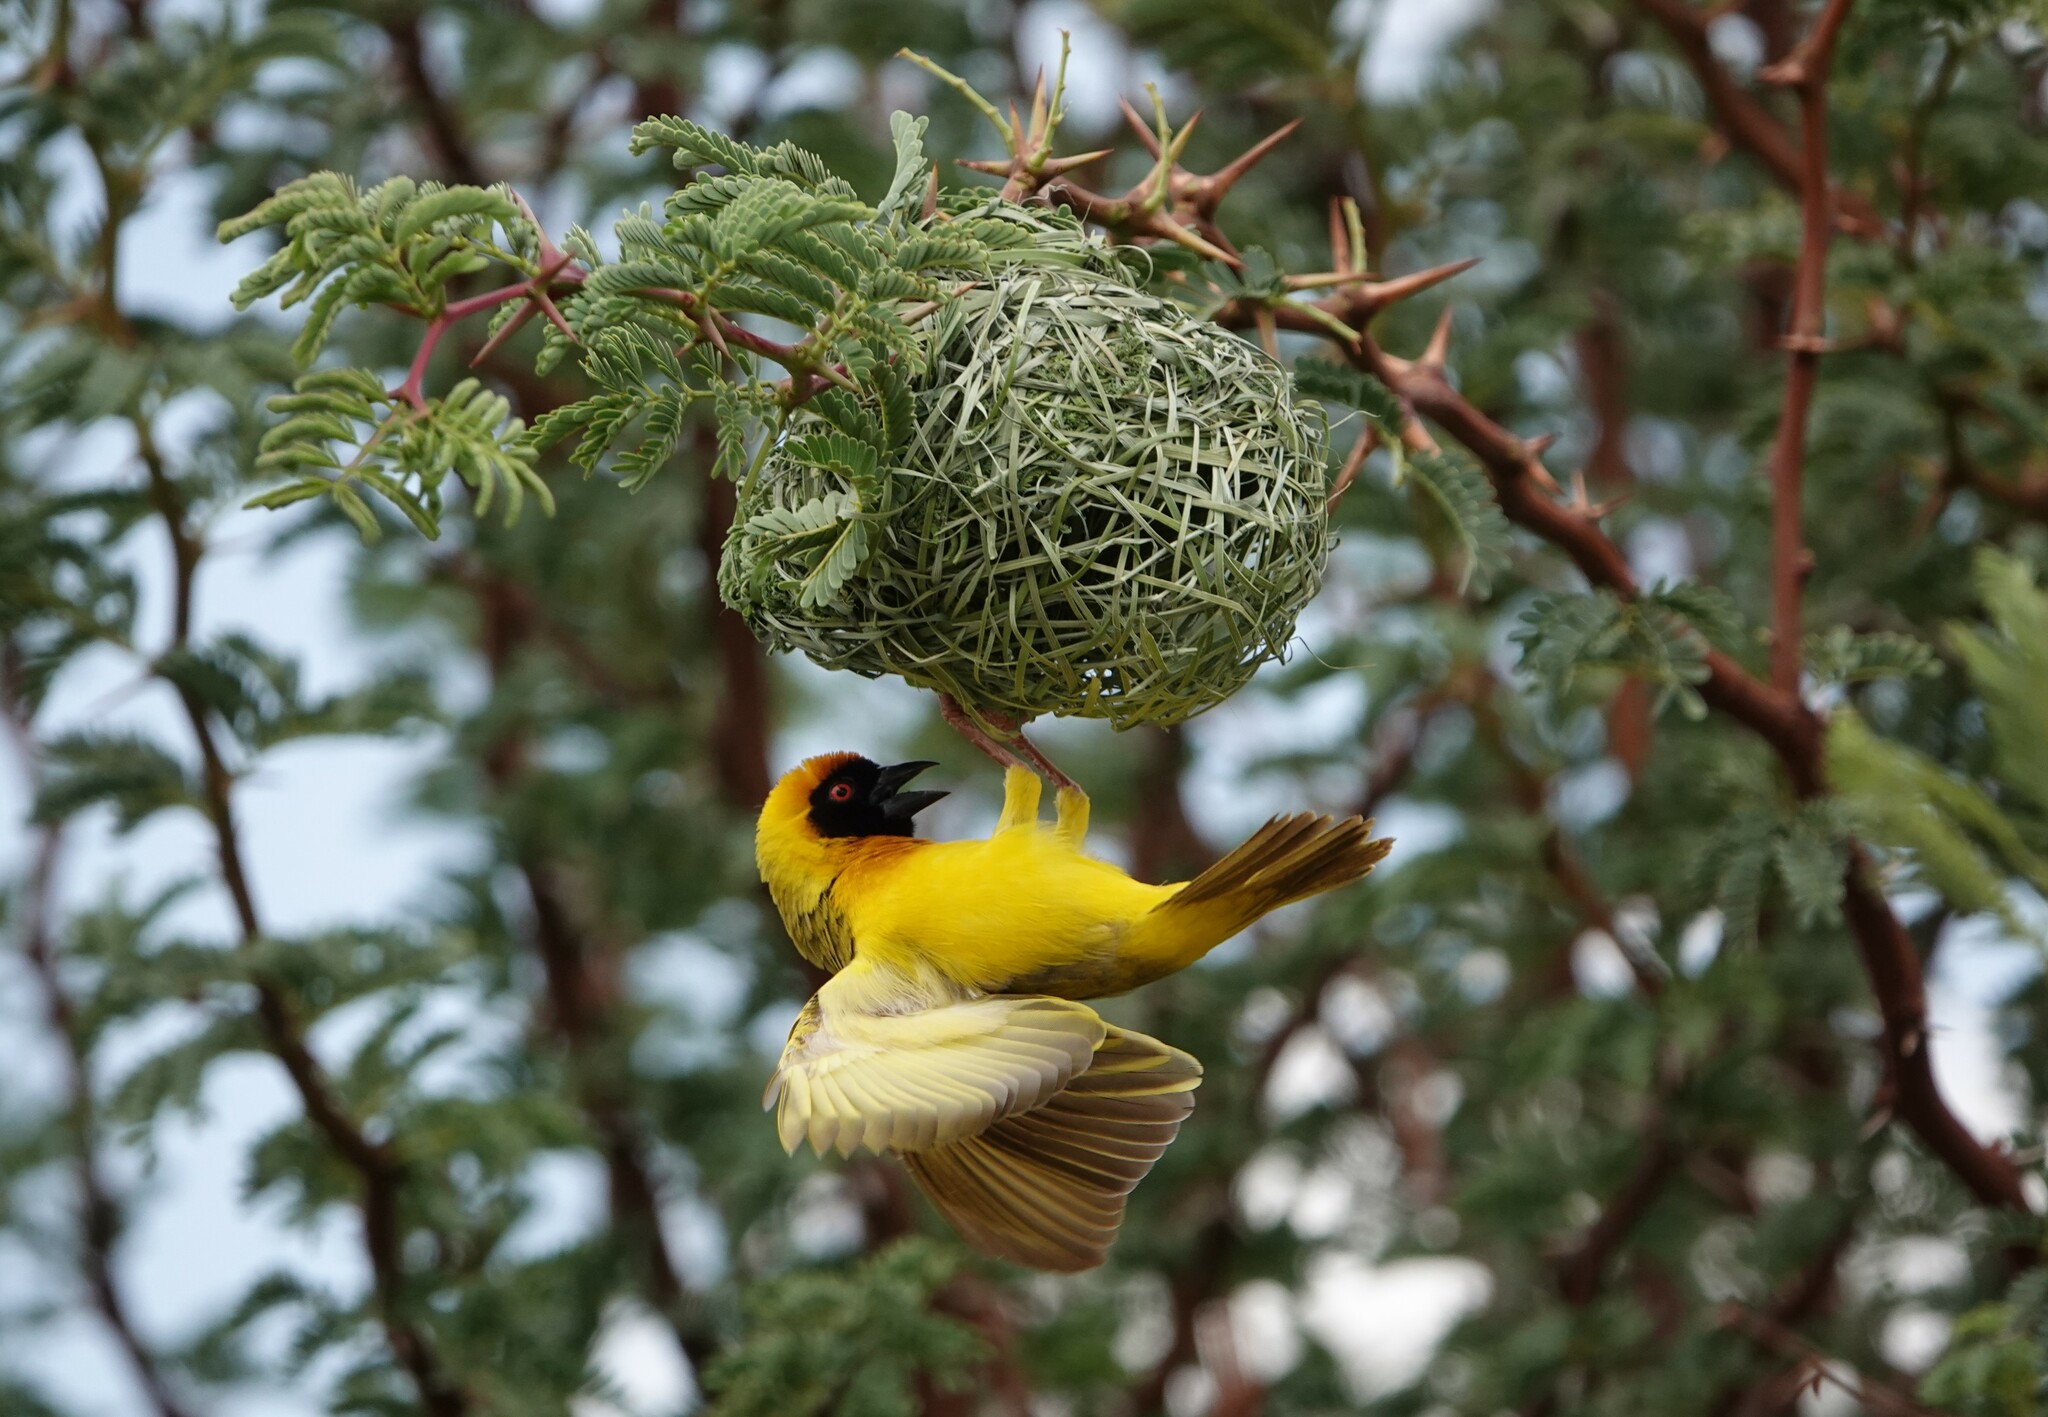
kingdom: Animalia
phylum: Chordata
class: Aves
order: Passeriformes
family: Ploceidae
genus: Ploceus
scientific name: Ploceus velatus
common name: Southern masked weaver
